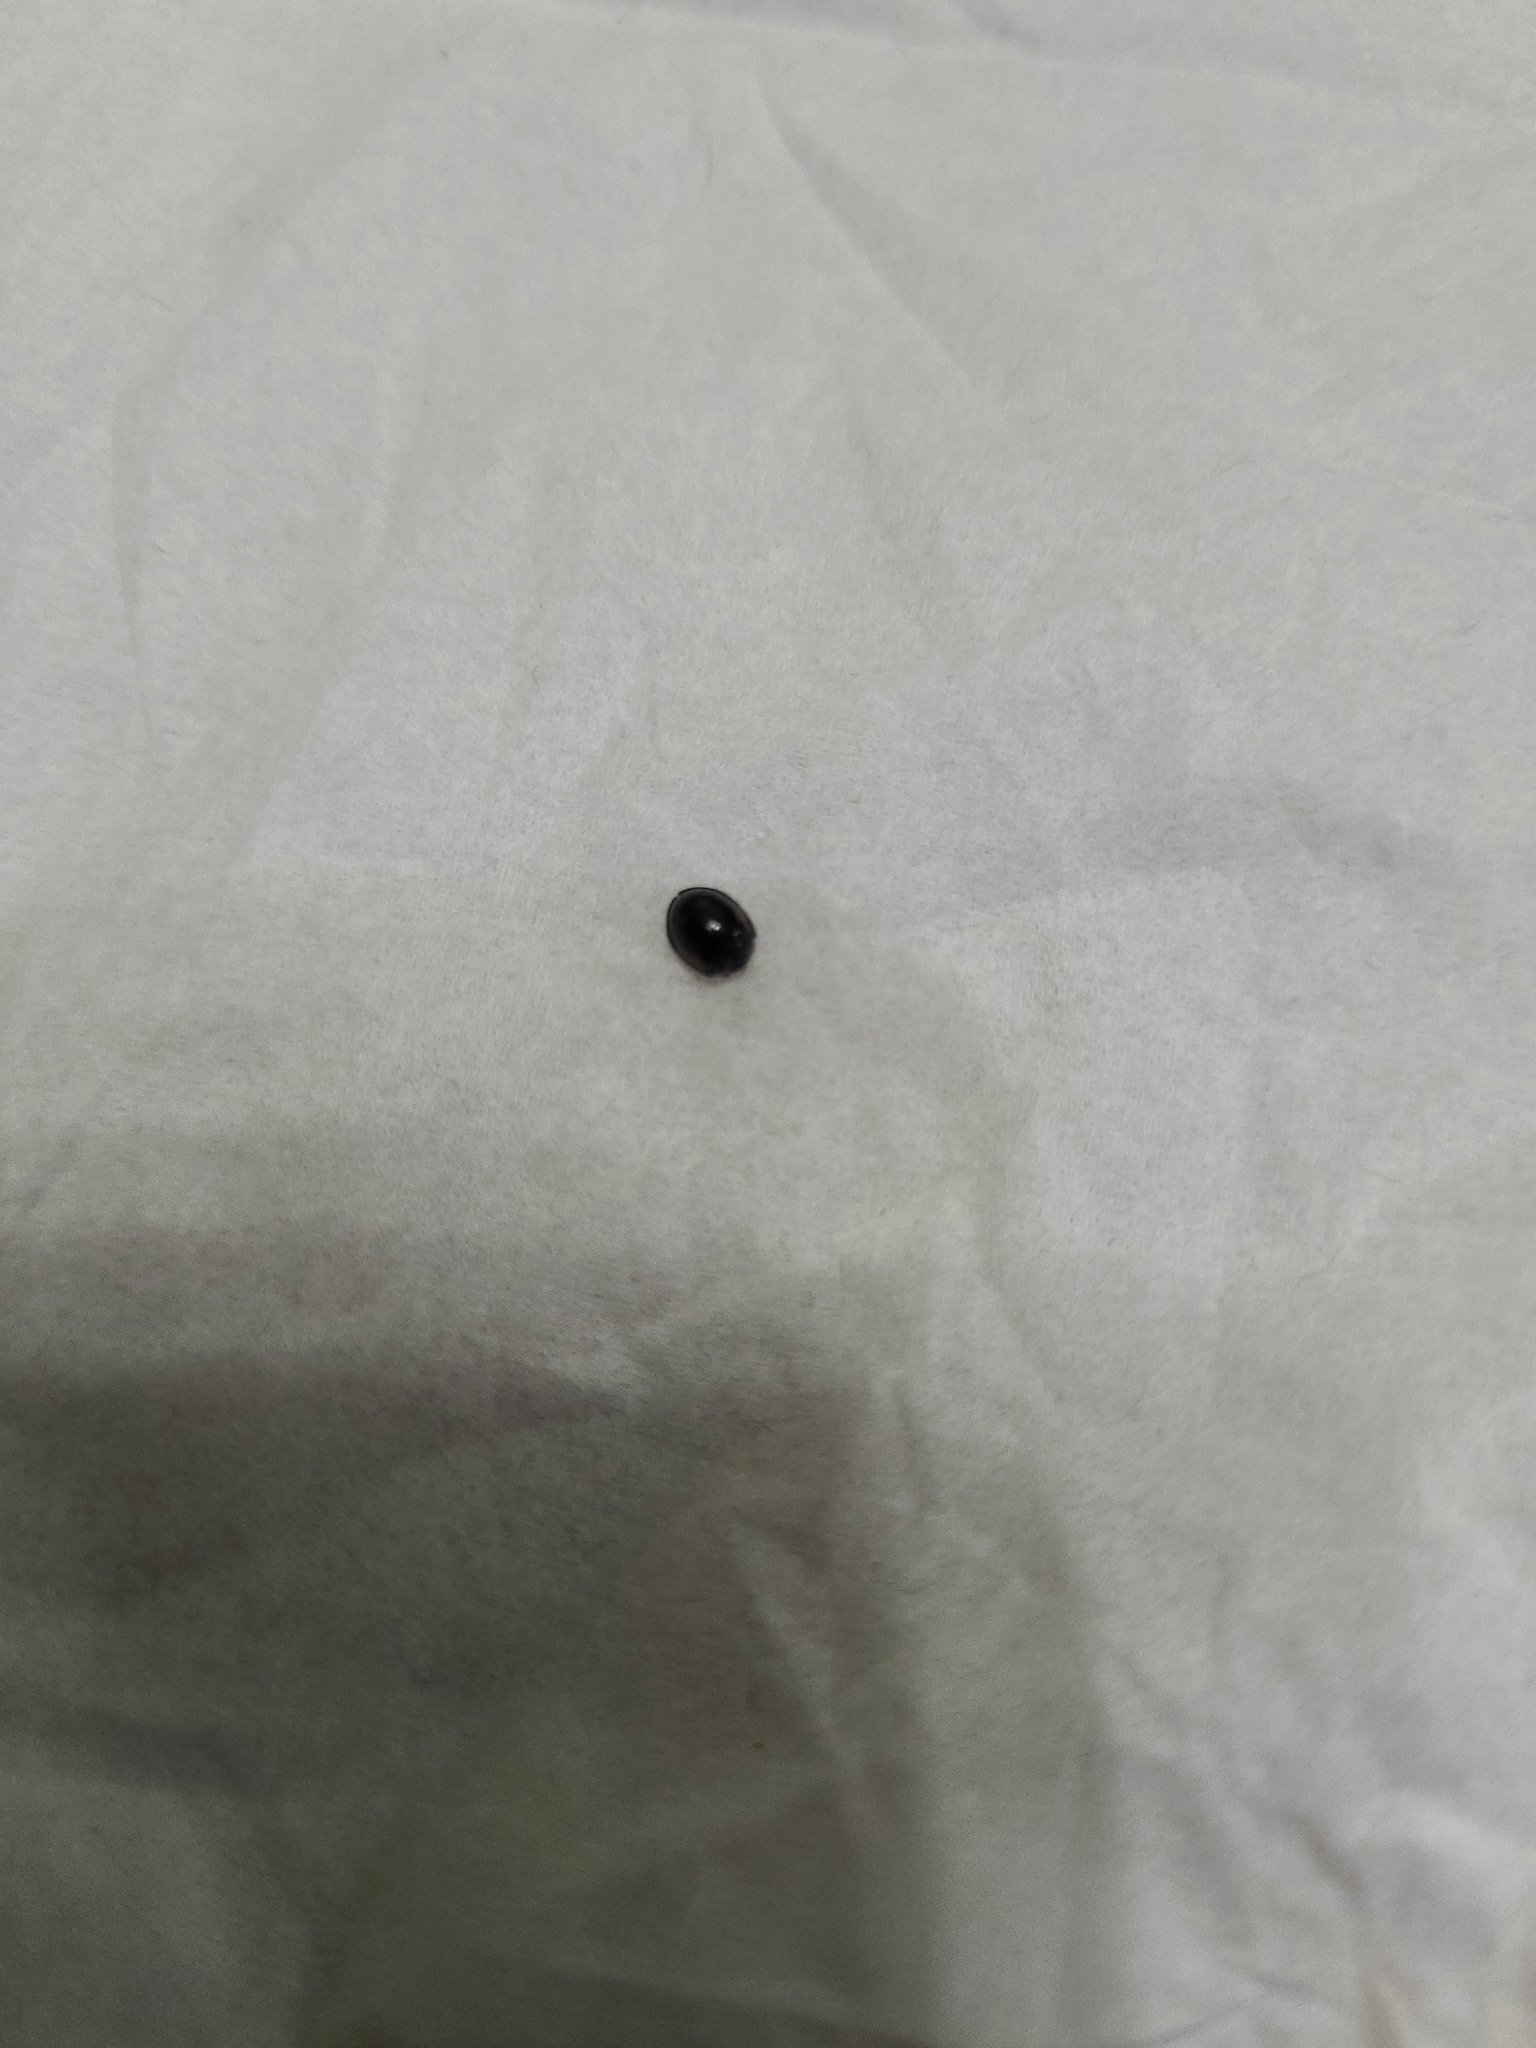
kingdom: Animalia
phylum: Arthropoda
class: Insecta
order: Coleoptera
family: Coccinellidae
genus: Brumus
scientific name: Brumus quadripustulatus
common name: Ladybird beetle
